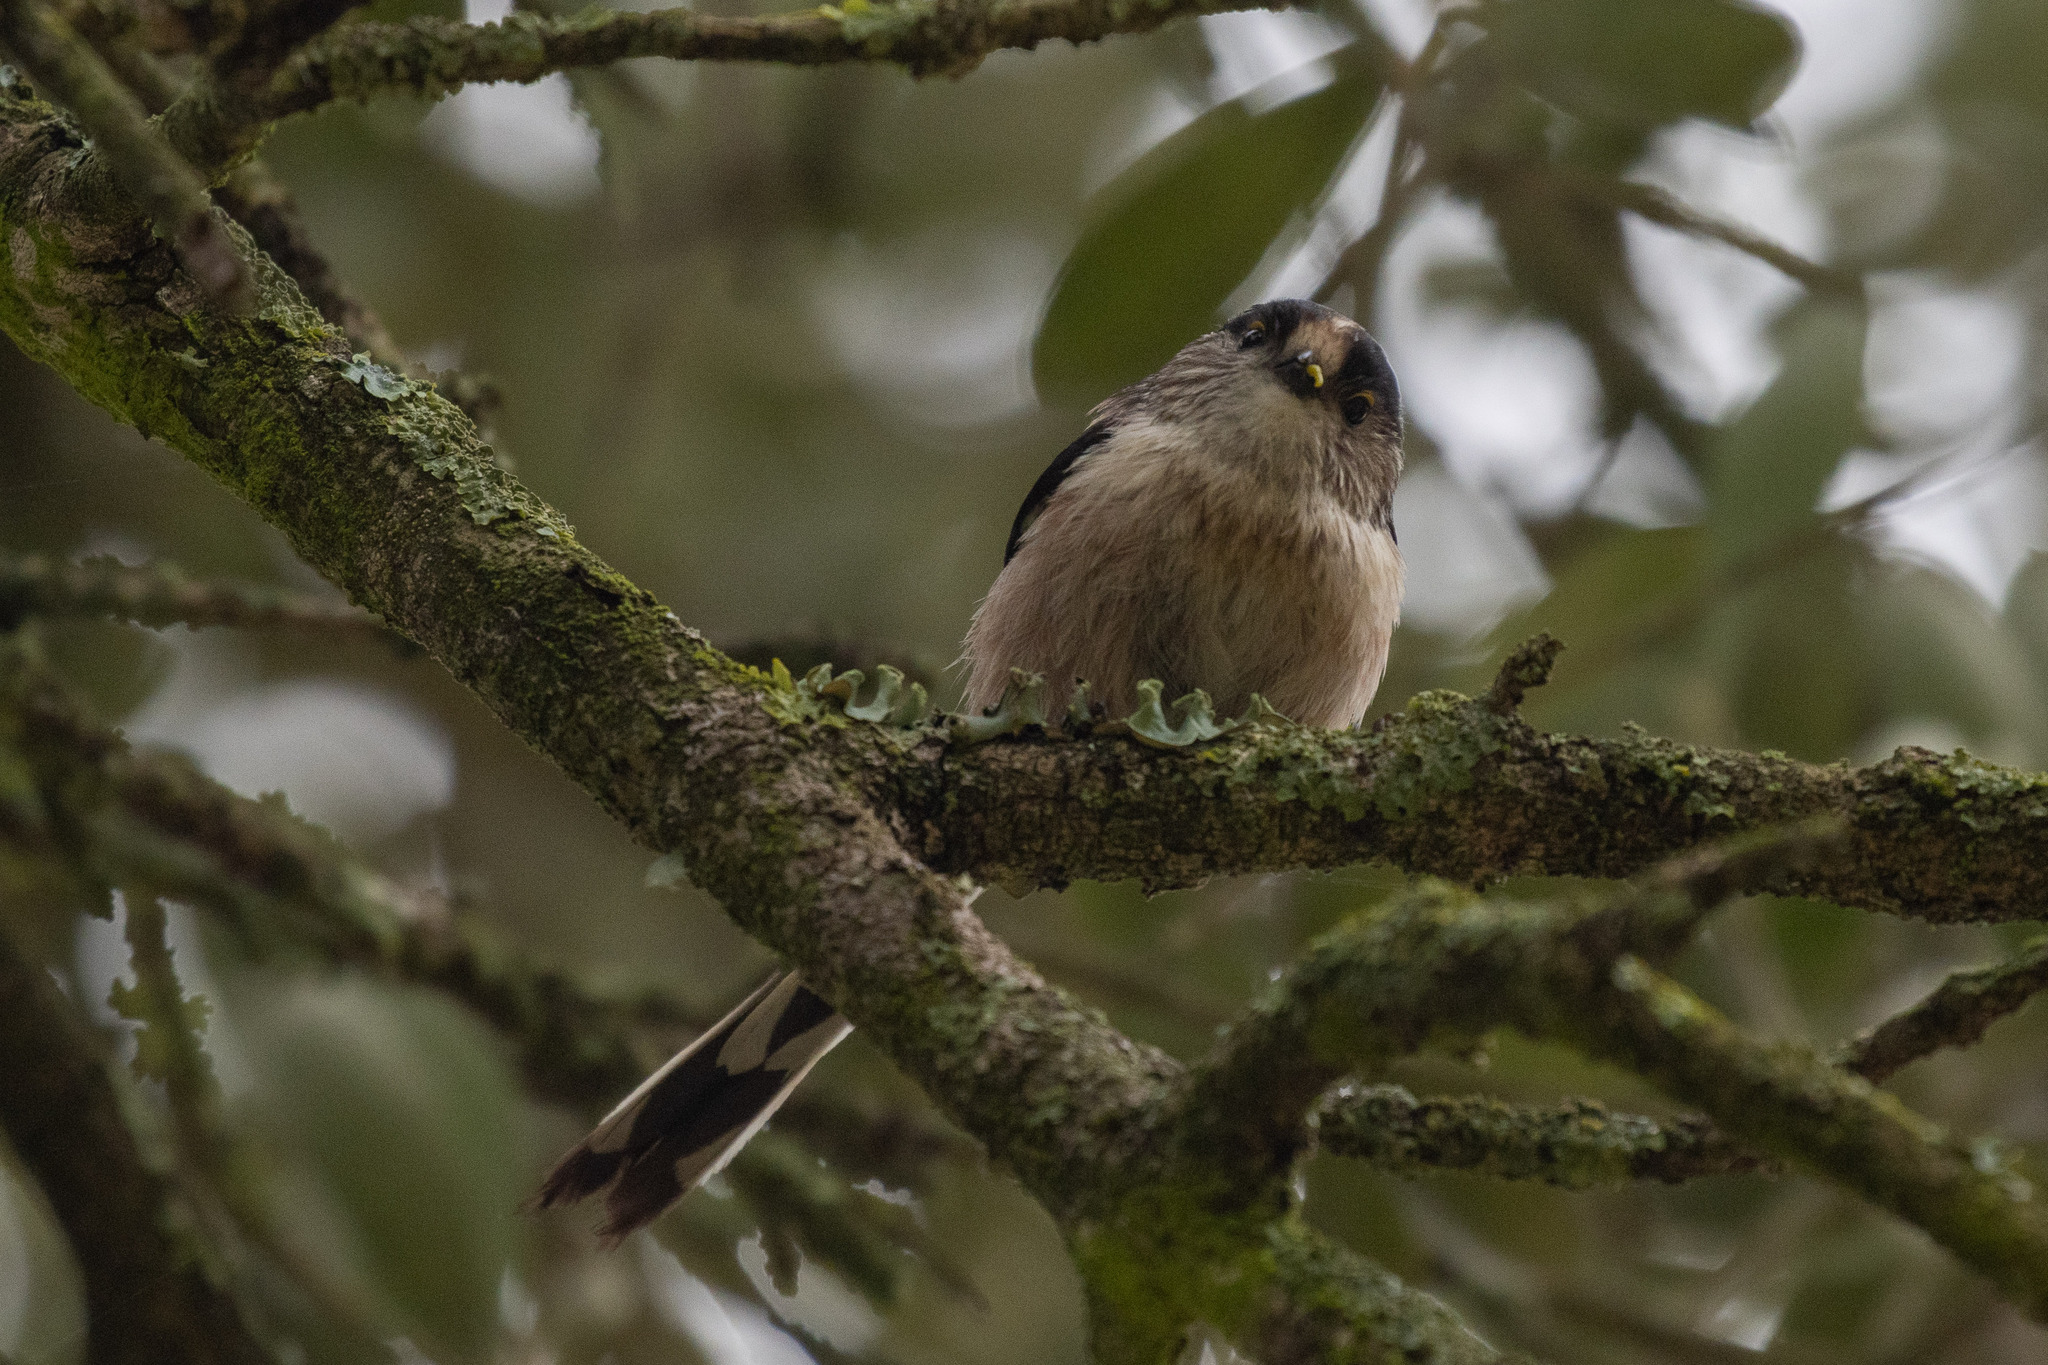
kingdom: Animalia
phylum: Chordata
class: Aves
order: Passeriformes
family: Aegithalidae
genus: Aegithalos
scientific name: Aegithalos caudatus
